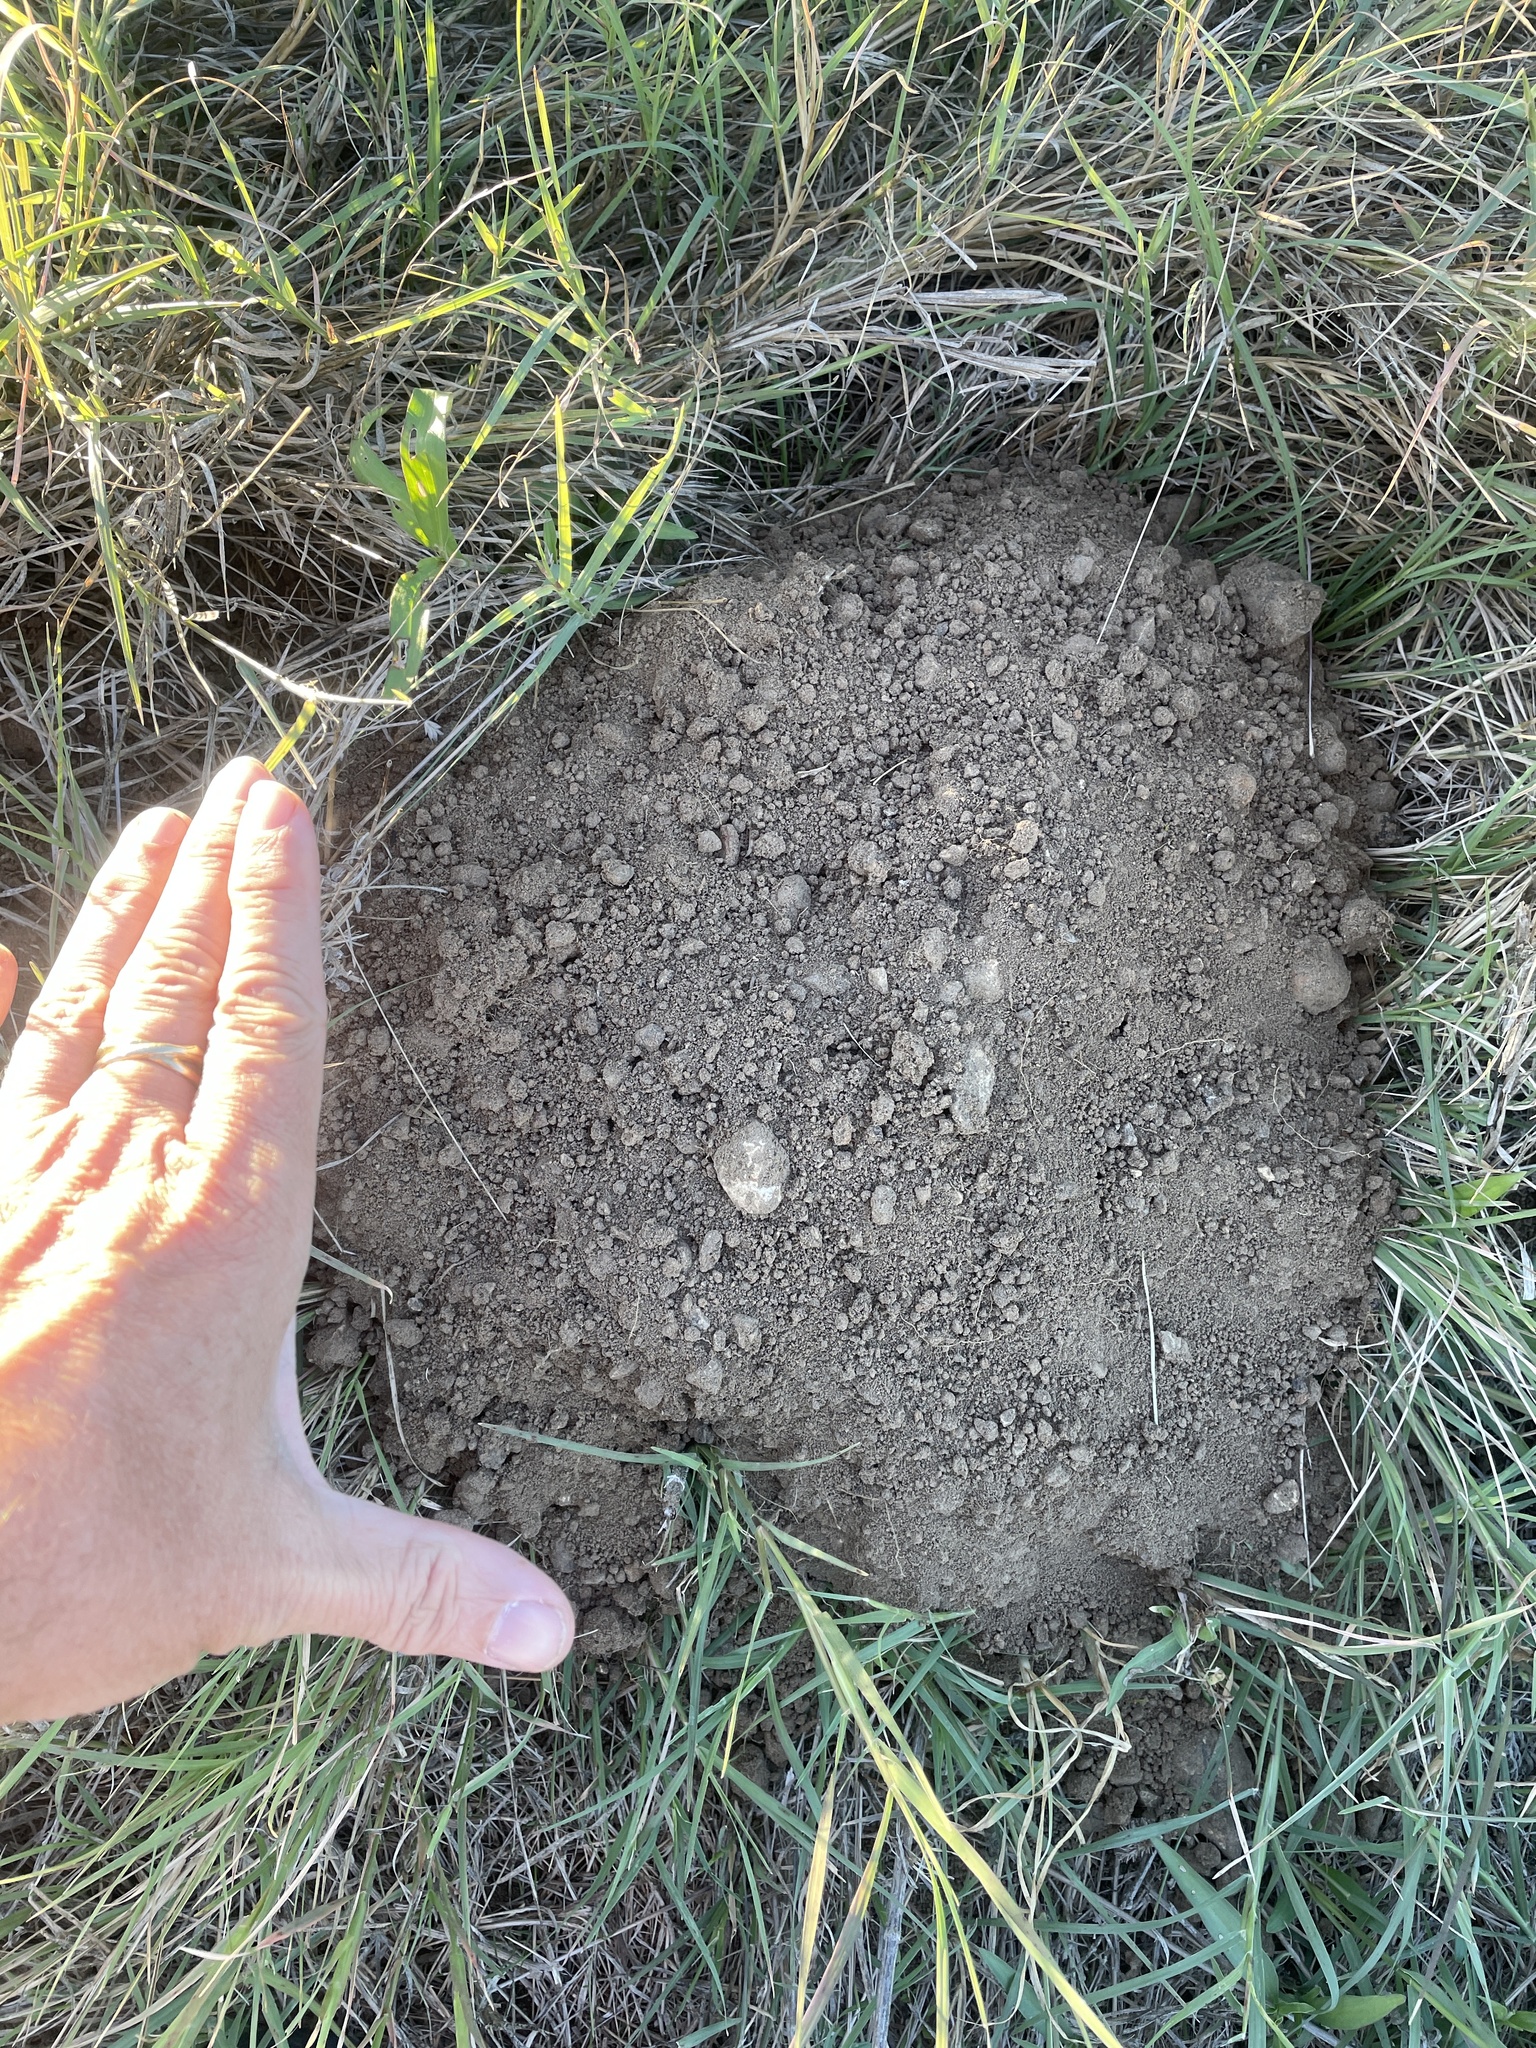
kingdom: Animalia
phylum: Chordata
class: Mammalia
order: Rodentia
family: Geomyidae
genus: Geomys
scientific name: Geomys attwateri
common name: Attwater's pocket gopher
